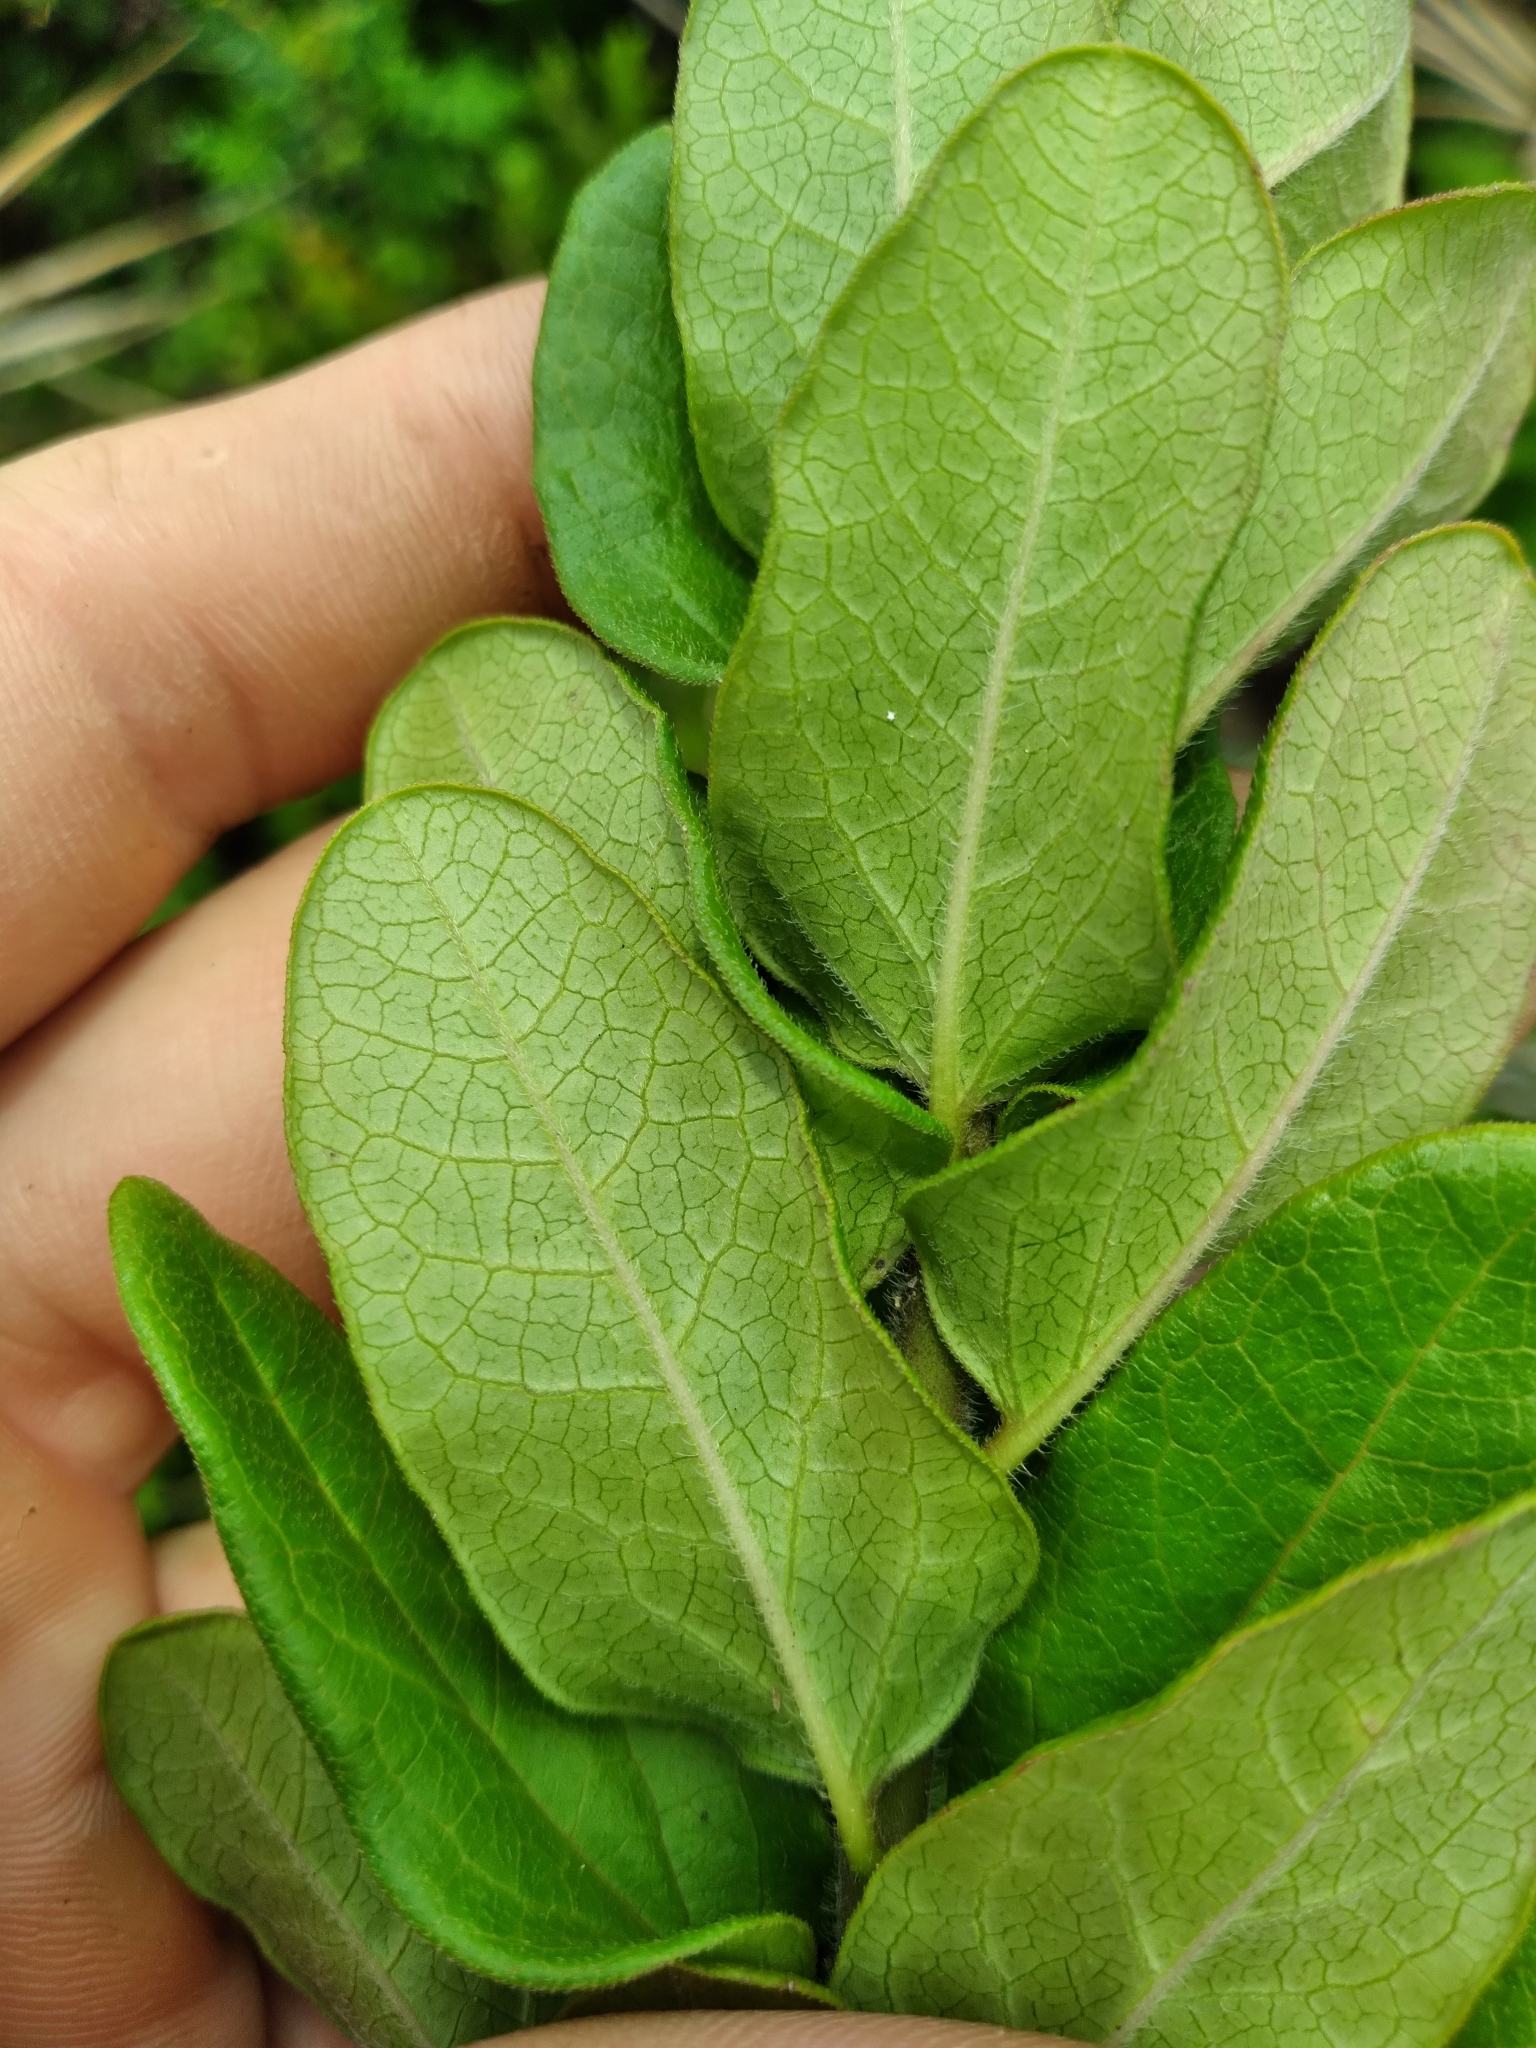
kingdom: Plantae
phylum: Tracheophyta
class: Magnoliopsida
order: Gentianales
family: Apocynaceae
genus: Asclepias
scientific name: Asclepias tuberosa
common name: Butterfly milkweed
